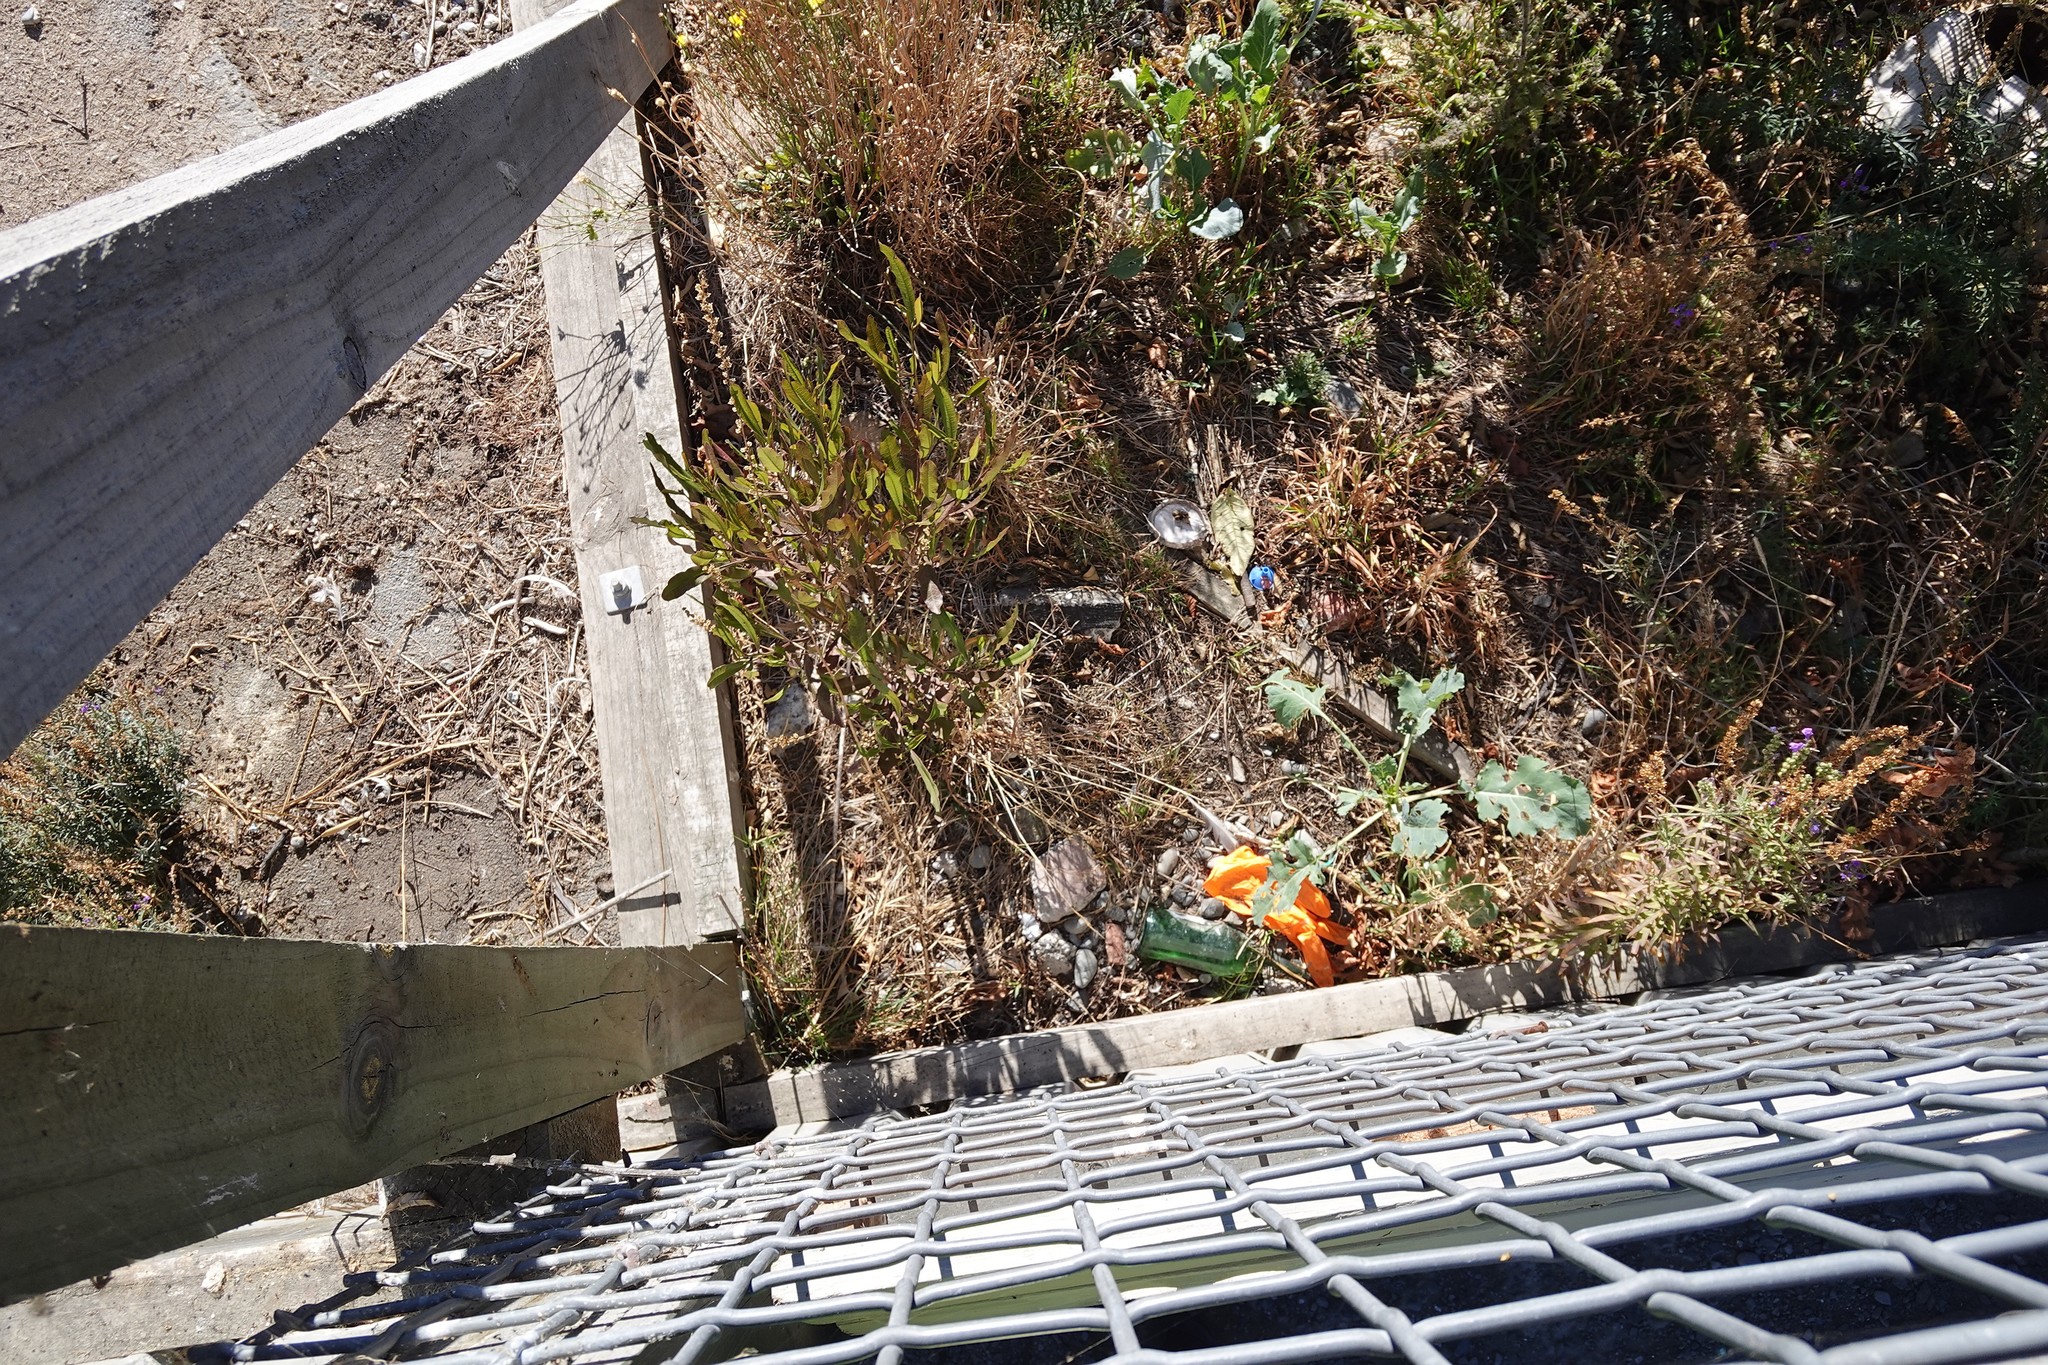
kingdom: Plantae
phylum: Tracheophyta
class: Magnoliopsida
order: Sapindales
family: Sapindaceae
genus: Dodonaea
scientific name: Dodonaea viscosa
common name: Hopbush
